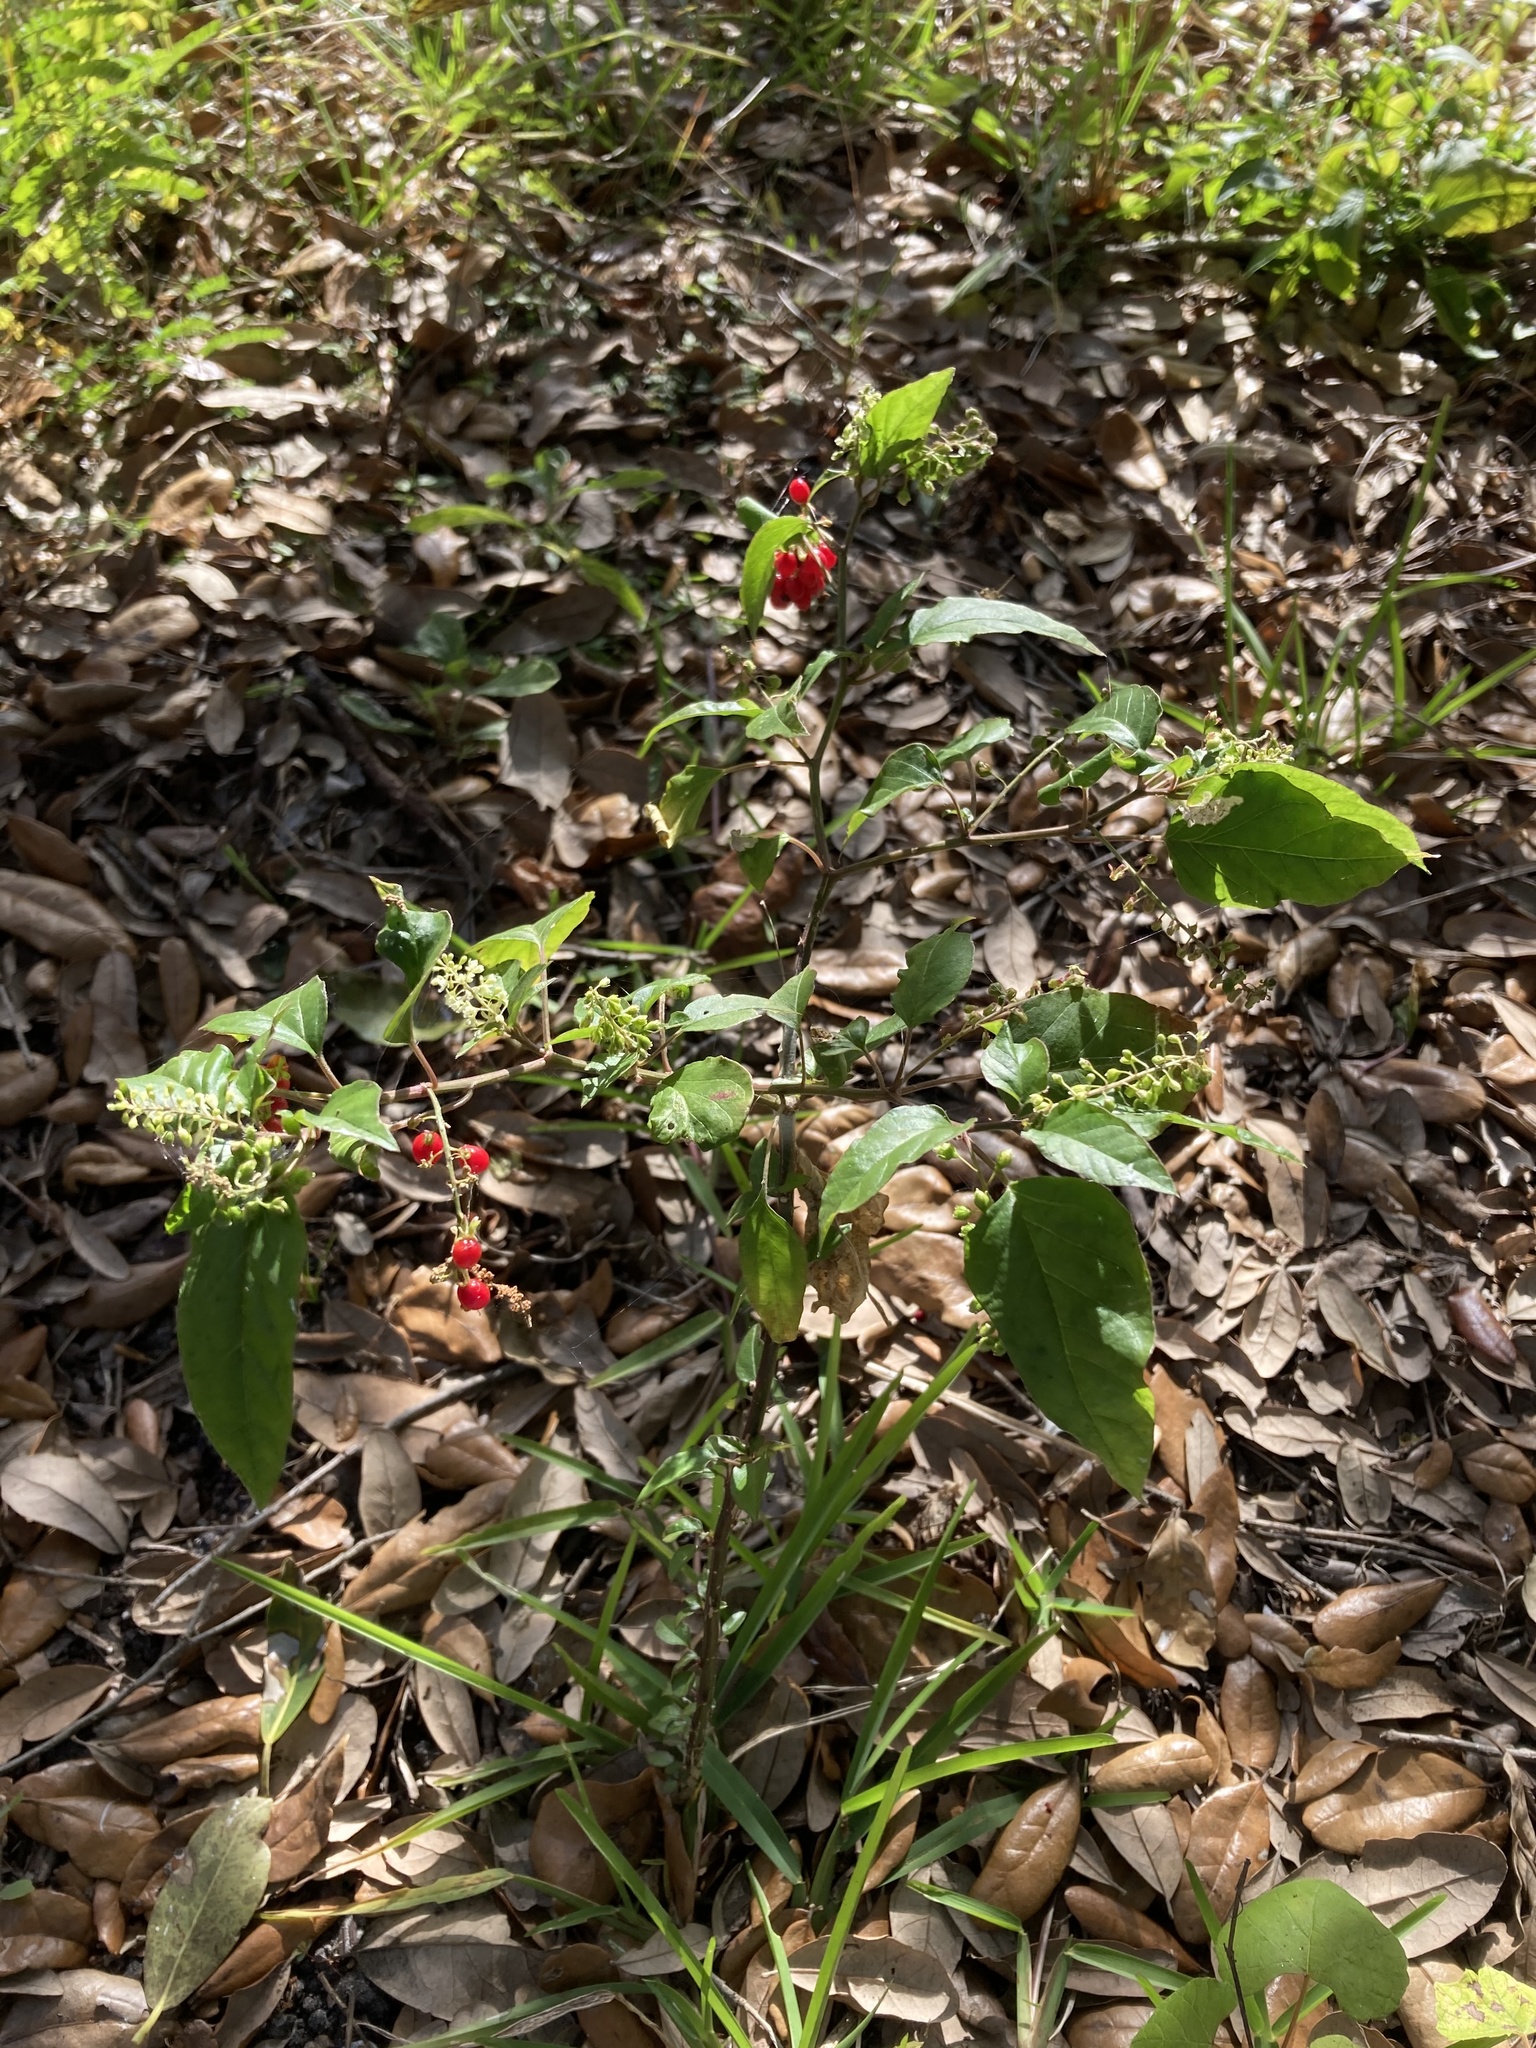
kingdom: Plantae
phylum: Tracheophyta
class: Magnoliopsida
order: Caryophyllales
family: Phytolaccaceae
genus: Rivina
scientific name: Rivina humilis
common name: Rougeplant
